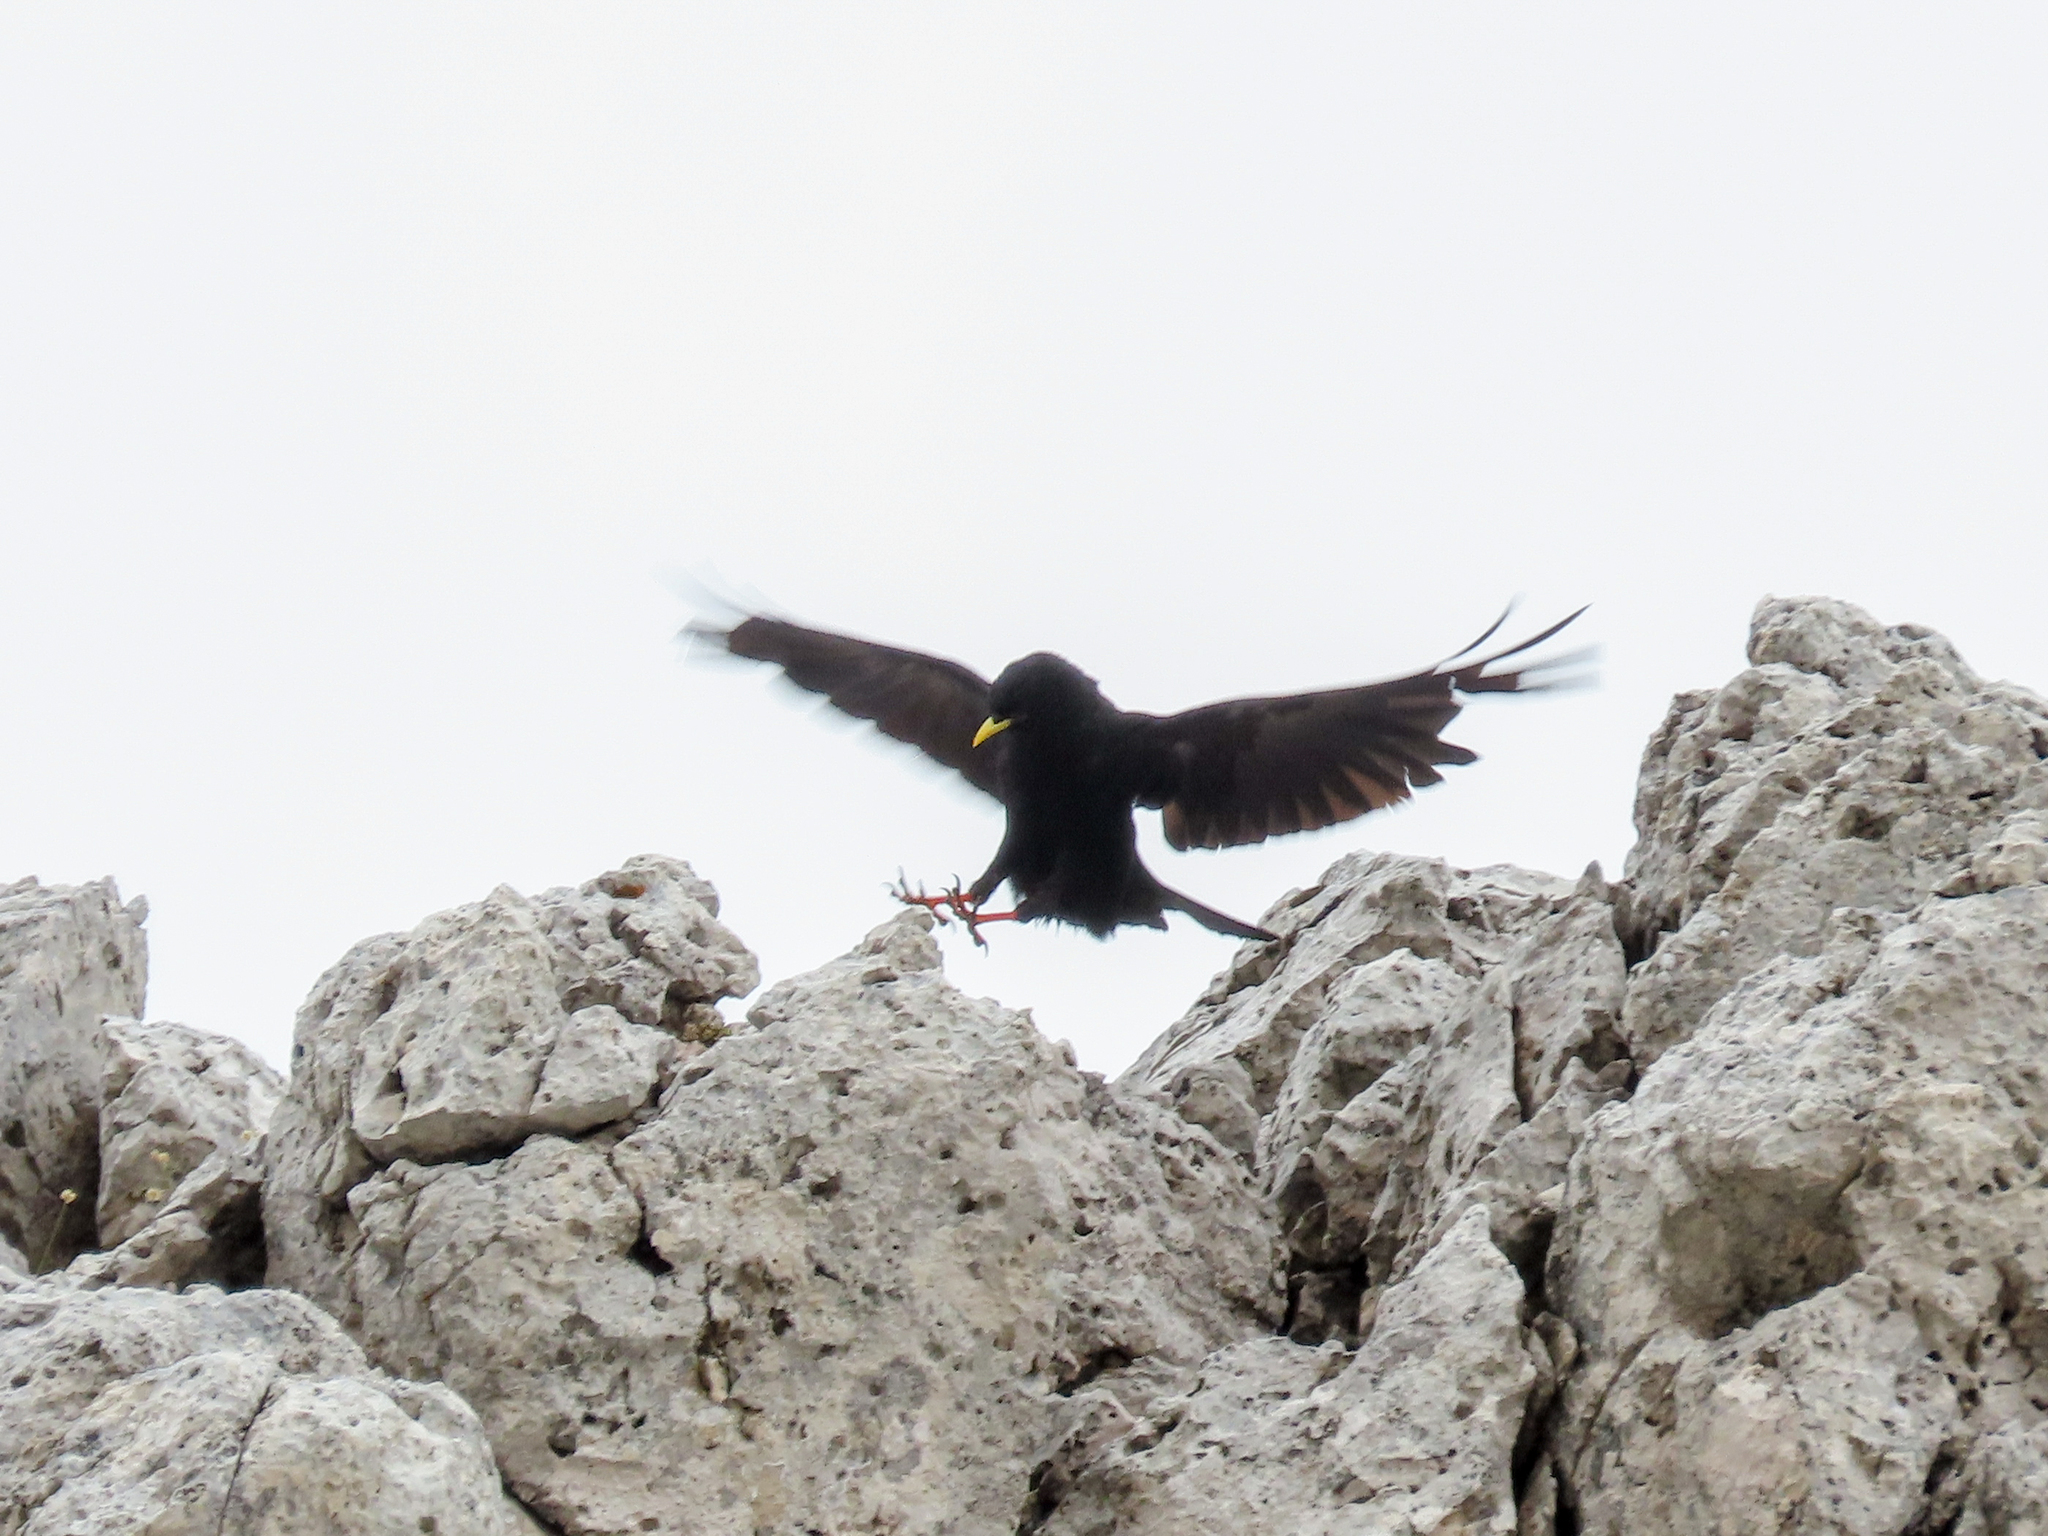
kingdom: Animalia
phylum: Chordata
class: Aves
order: Passeriformes
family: Corvidae
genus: Pyrrhocorax
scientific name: Pyrrhocorax graculus
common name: Alpine chough
